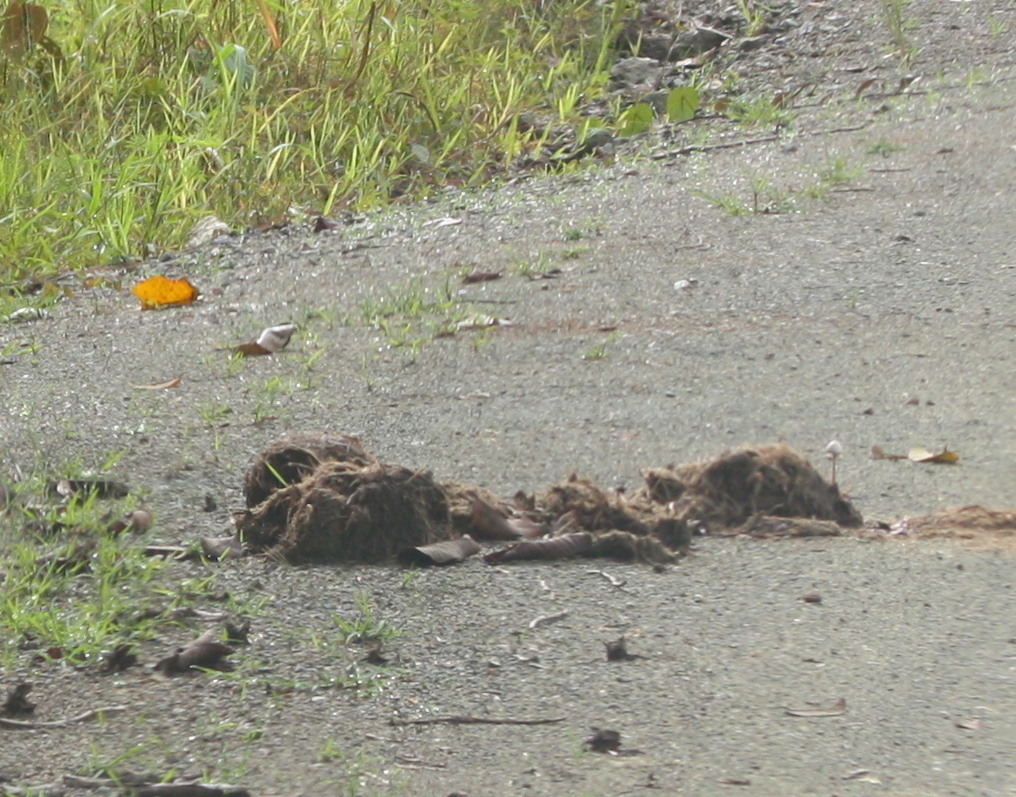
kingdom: Animalia
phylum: Chordata
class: Mammalia
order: Proboscidea
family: Elephantidae
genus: Elephas
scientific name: Elephas maximus
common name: Asian elephant
